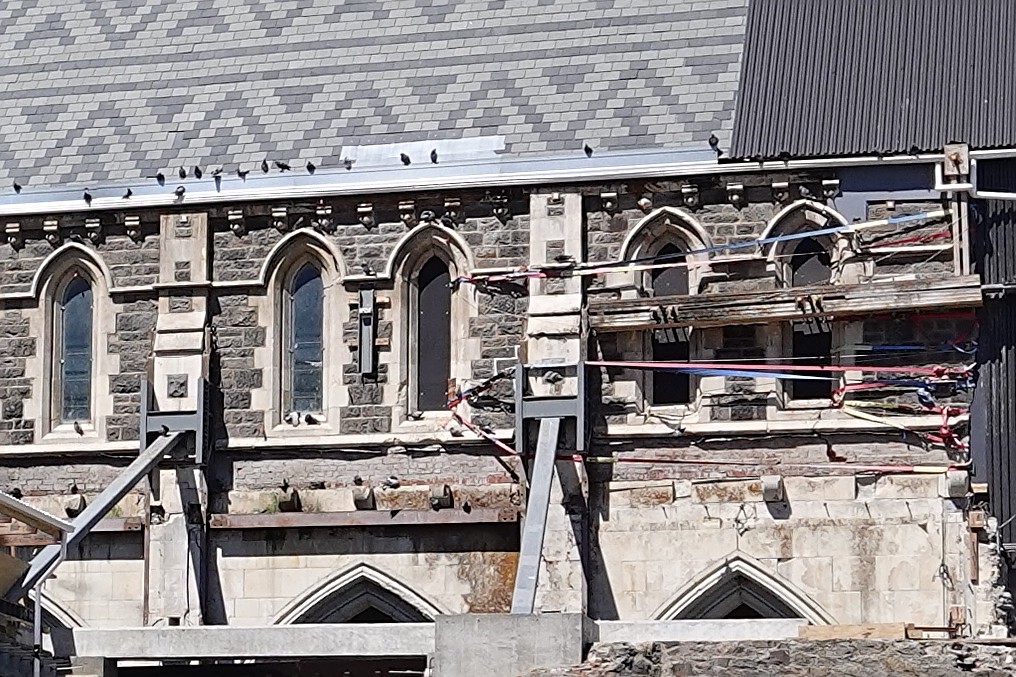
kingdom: Animalia
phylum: Chordata
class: Aves
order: Columbiformes
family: Columbidae
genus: Columba
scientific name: Columba livia
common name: Rock pigeon
